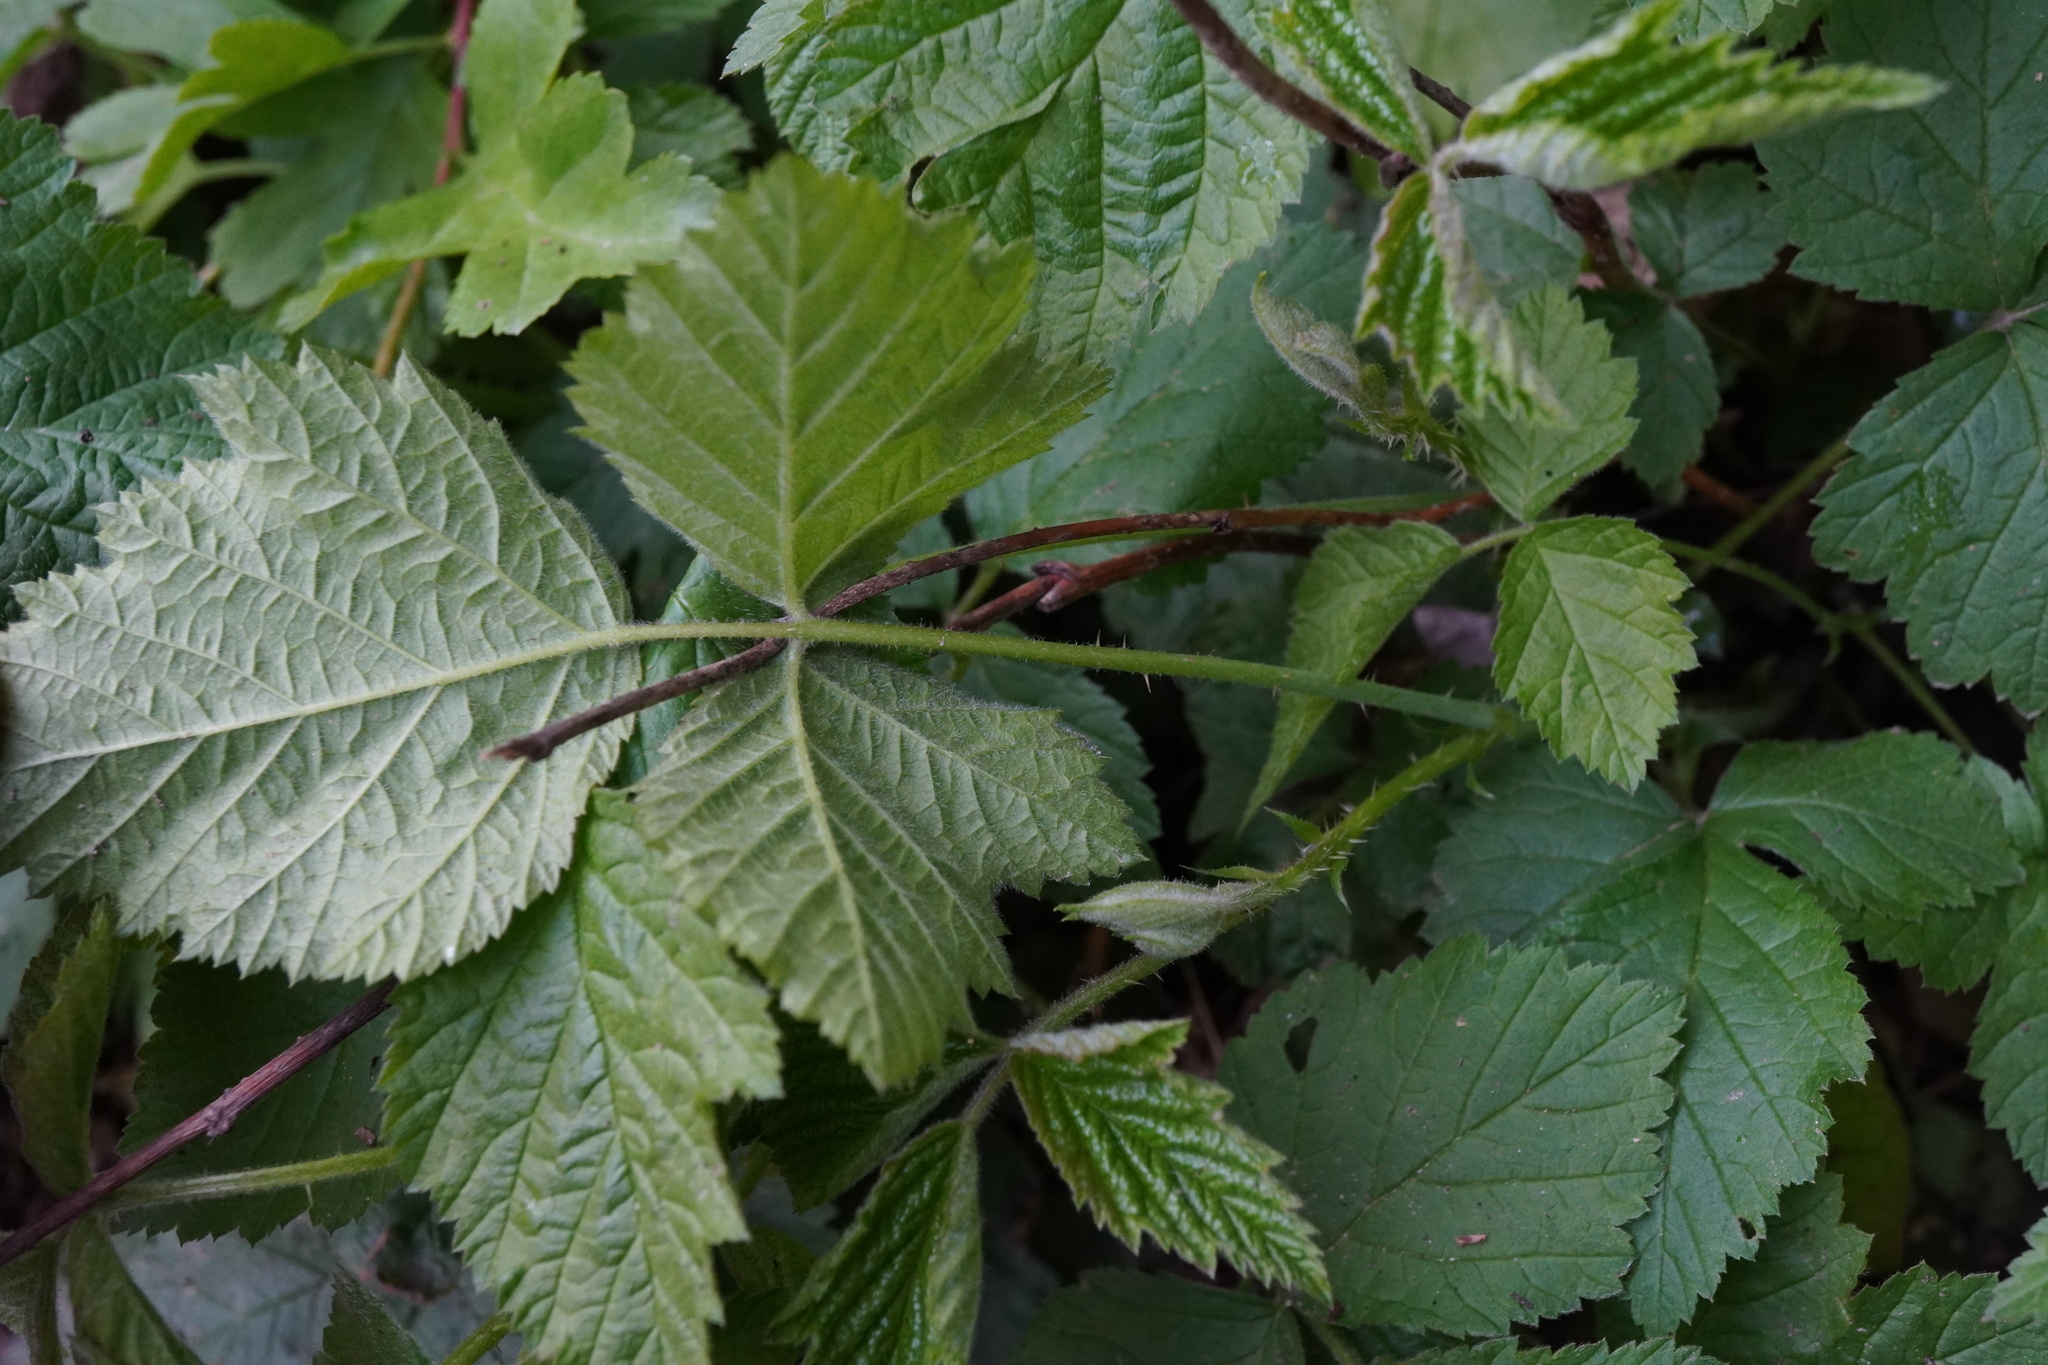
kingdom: Plantae
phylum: Tracheophyta
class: Magnoliopsida
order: Rosales
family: Rosaceae
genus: Rubus
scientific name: Rubus caesius
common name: Dewberry
